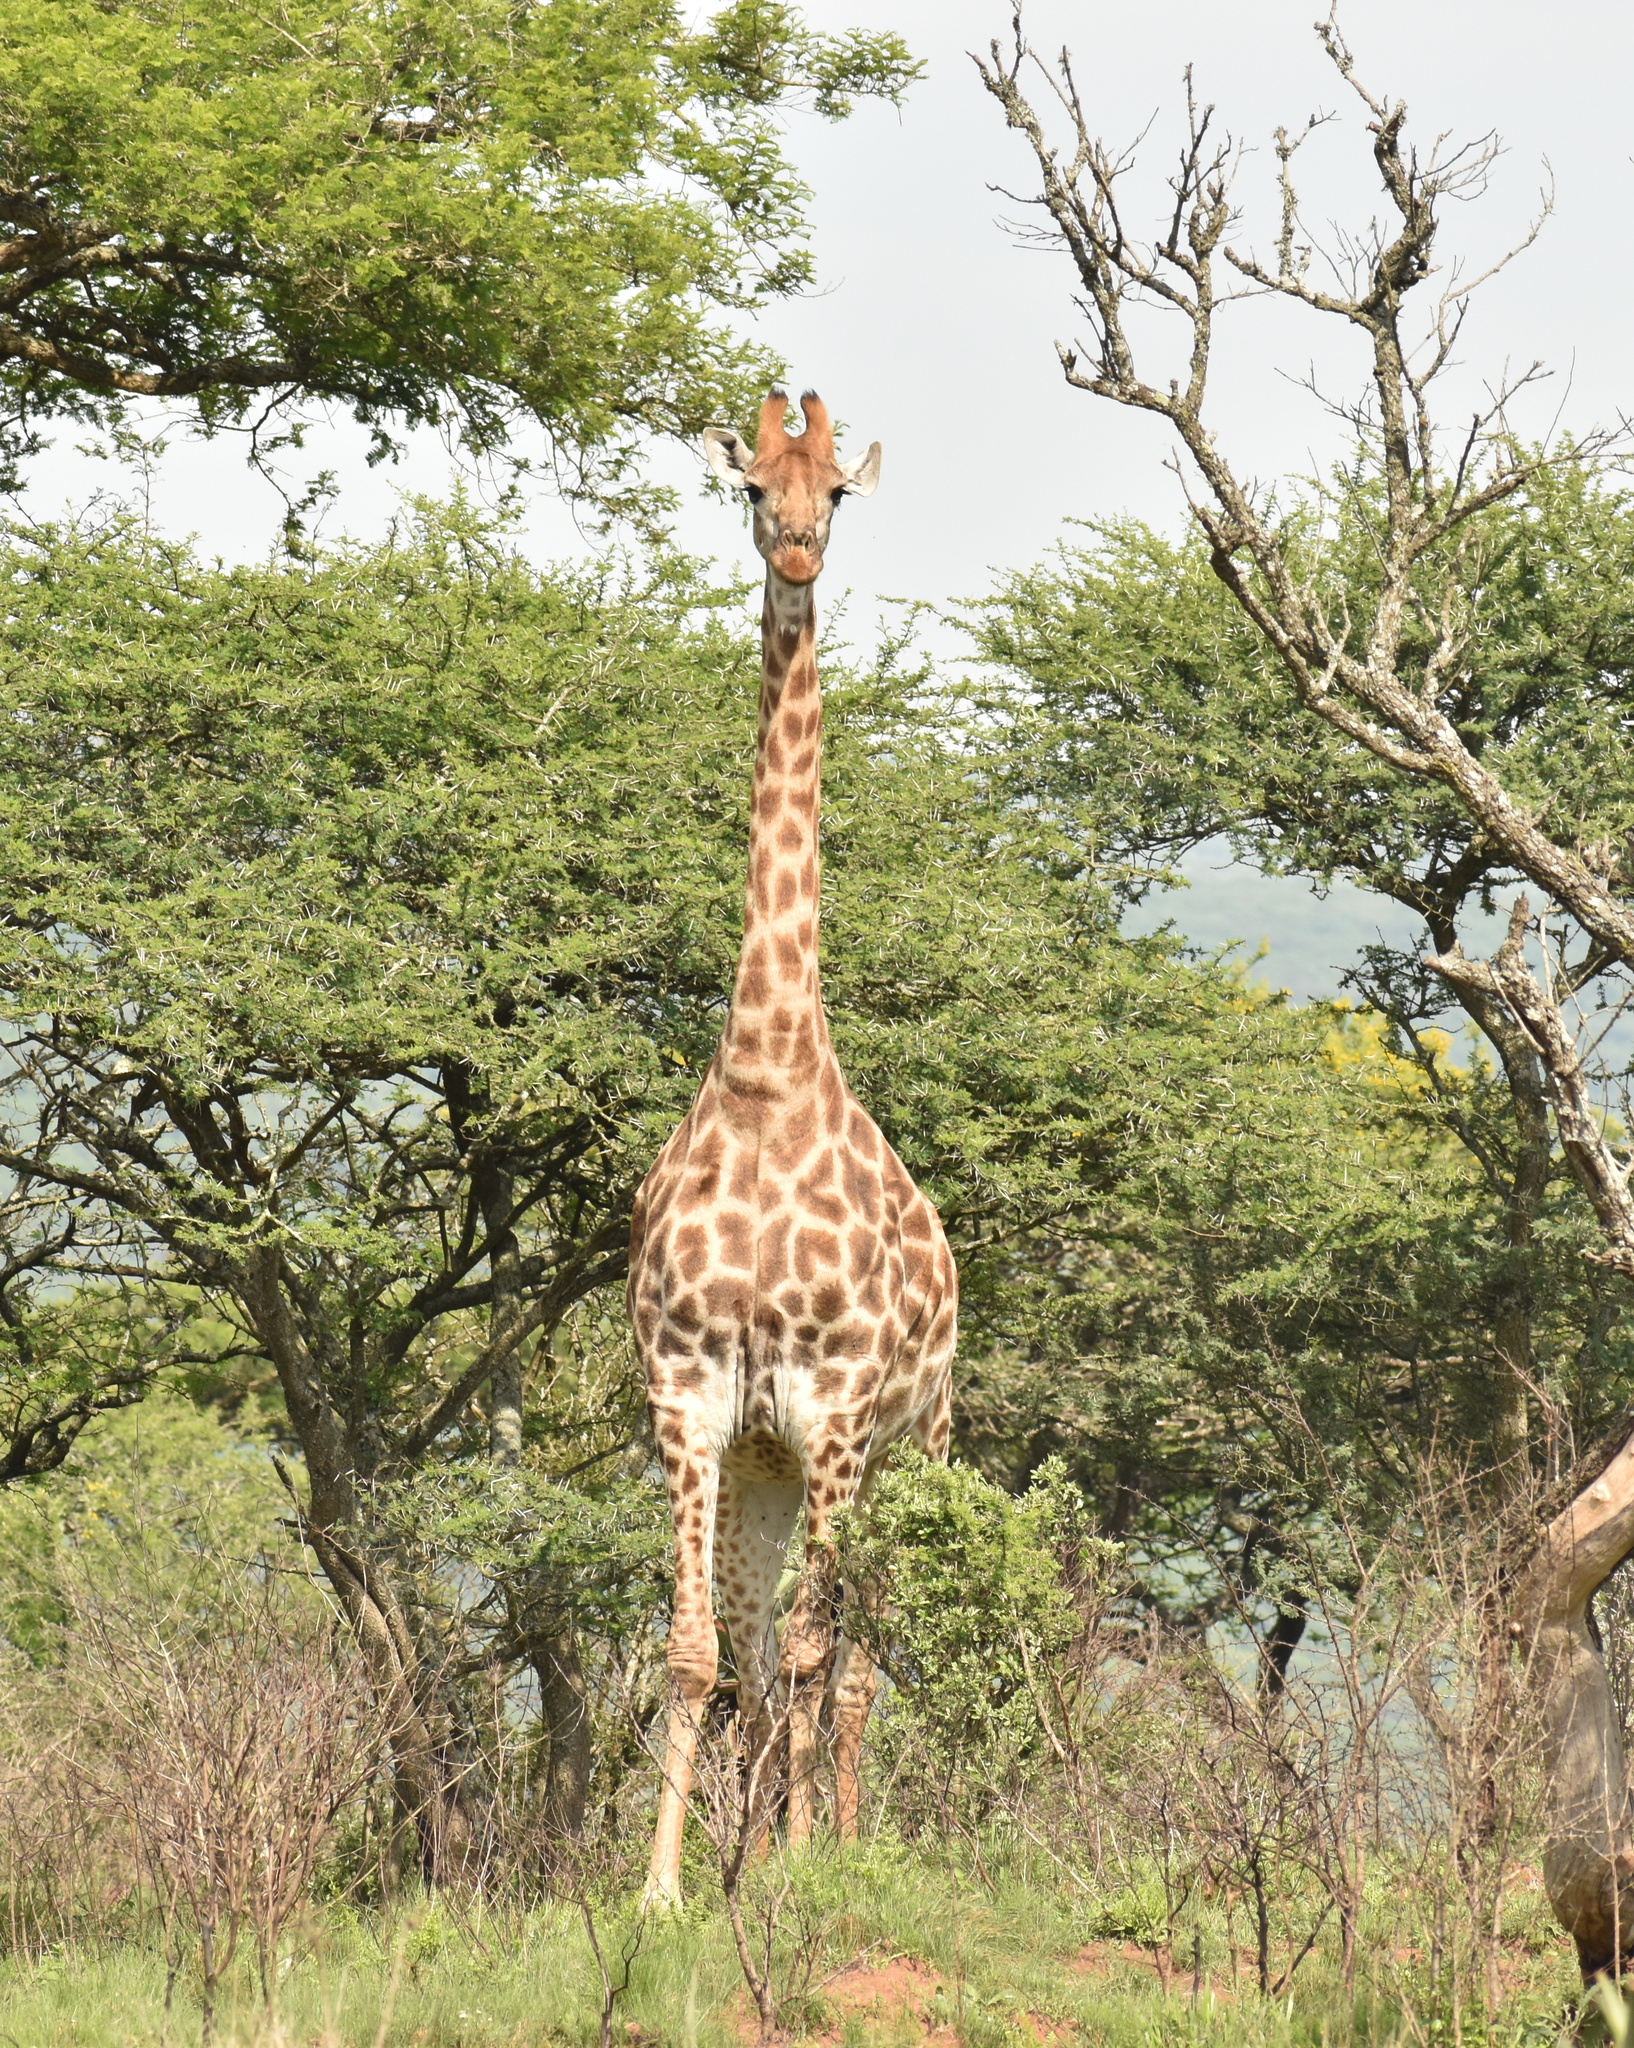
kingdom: Animalia
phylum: Chordata
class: Mammalia
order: Artiodactyla
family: Giraffidae
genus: Giraffa
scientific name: Giraffa giraffa
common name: Southern giraffe
